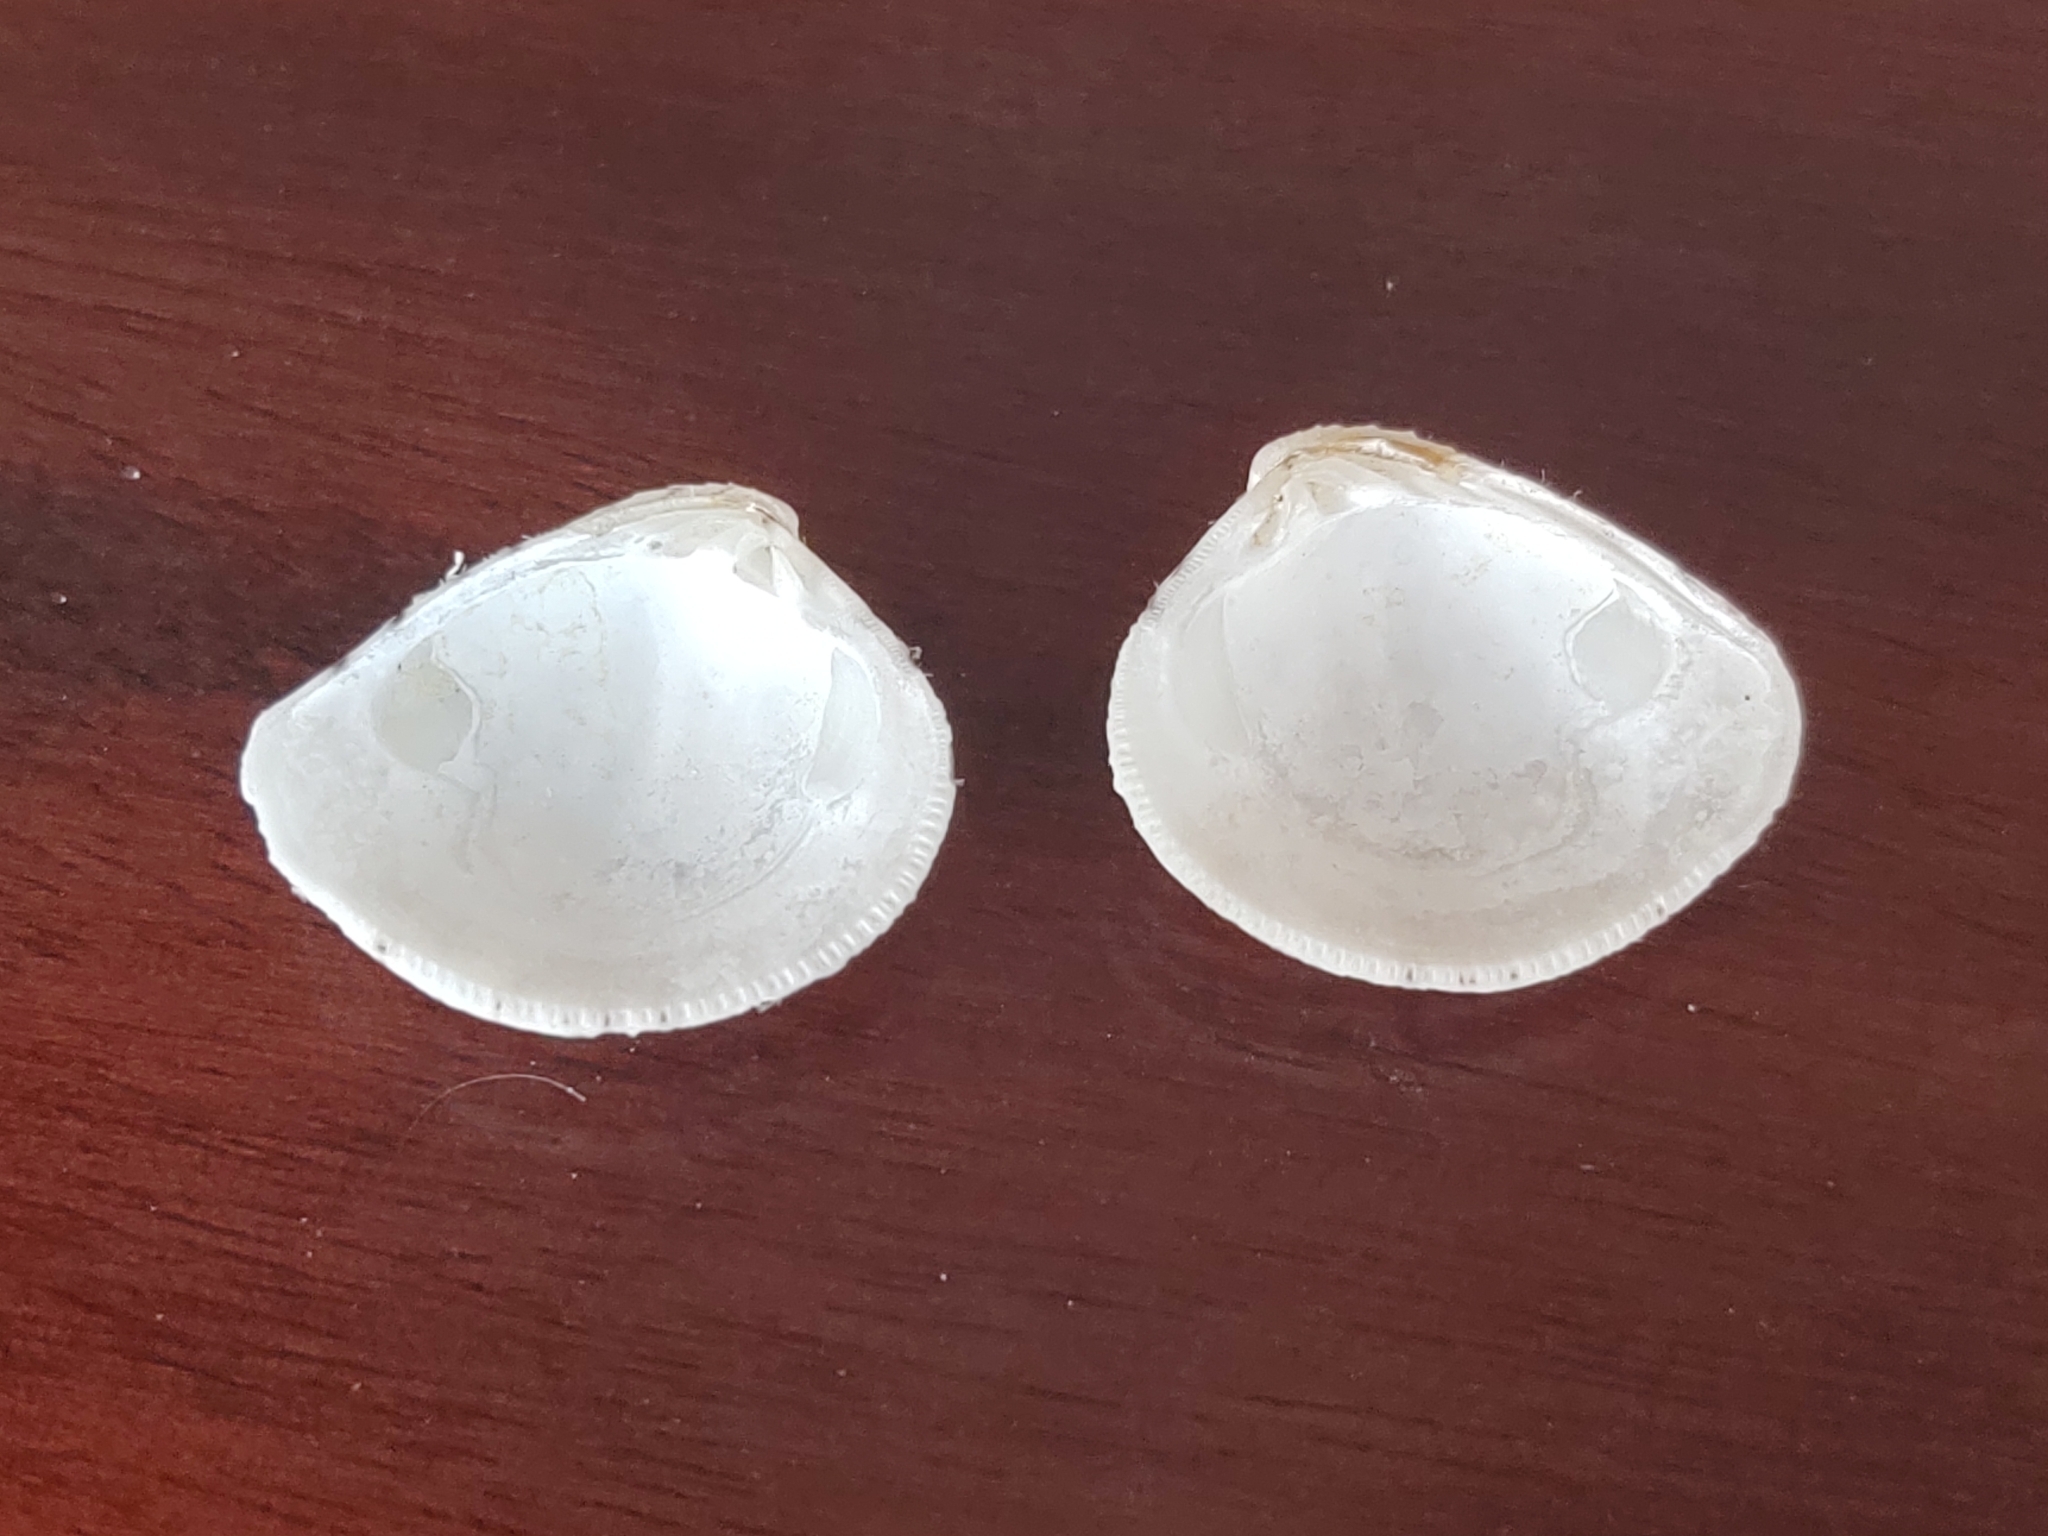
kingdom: Animalia
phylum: Mollusca
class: Bivalvia
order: Venerida
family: Veneridae
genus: Chione
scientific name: Chione cancellata
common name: Cross-barred venus
